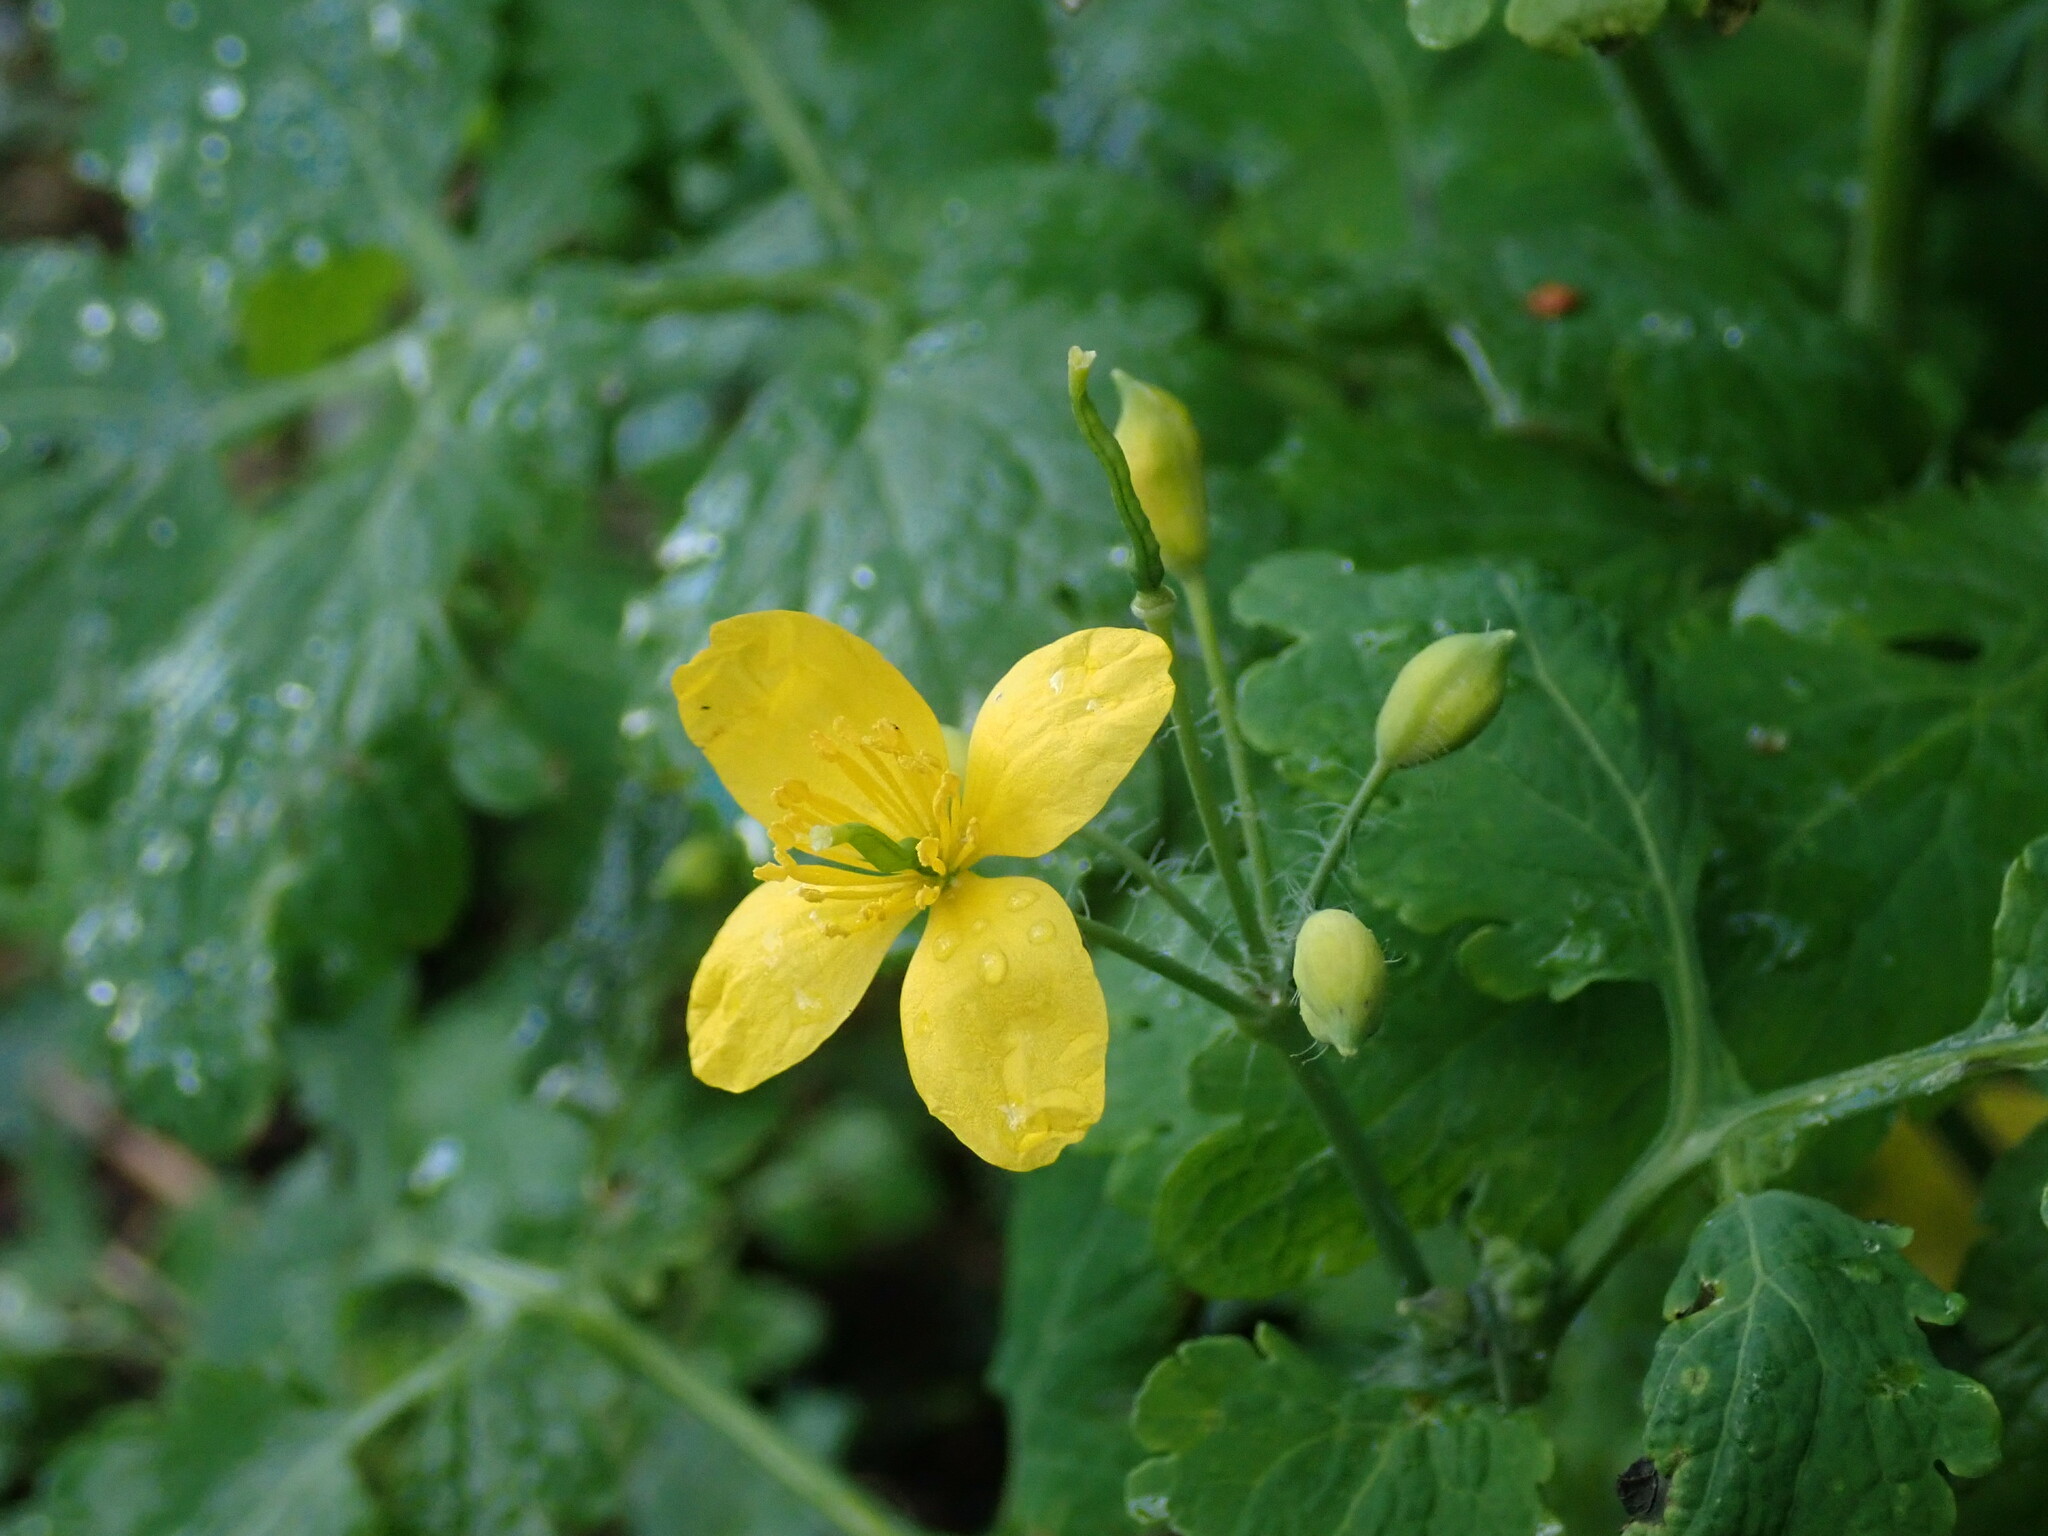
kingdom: Plantae
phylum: Tracheophyta
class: Magnoliopsida
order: Ranunculales
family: Papaveraceae
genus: Chelidonium
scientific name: Chelidonium majus
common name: Greater celandine
